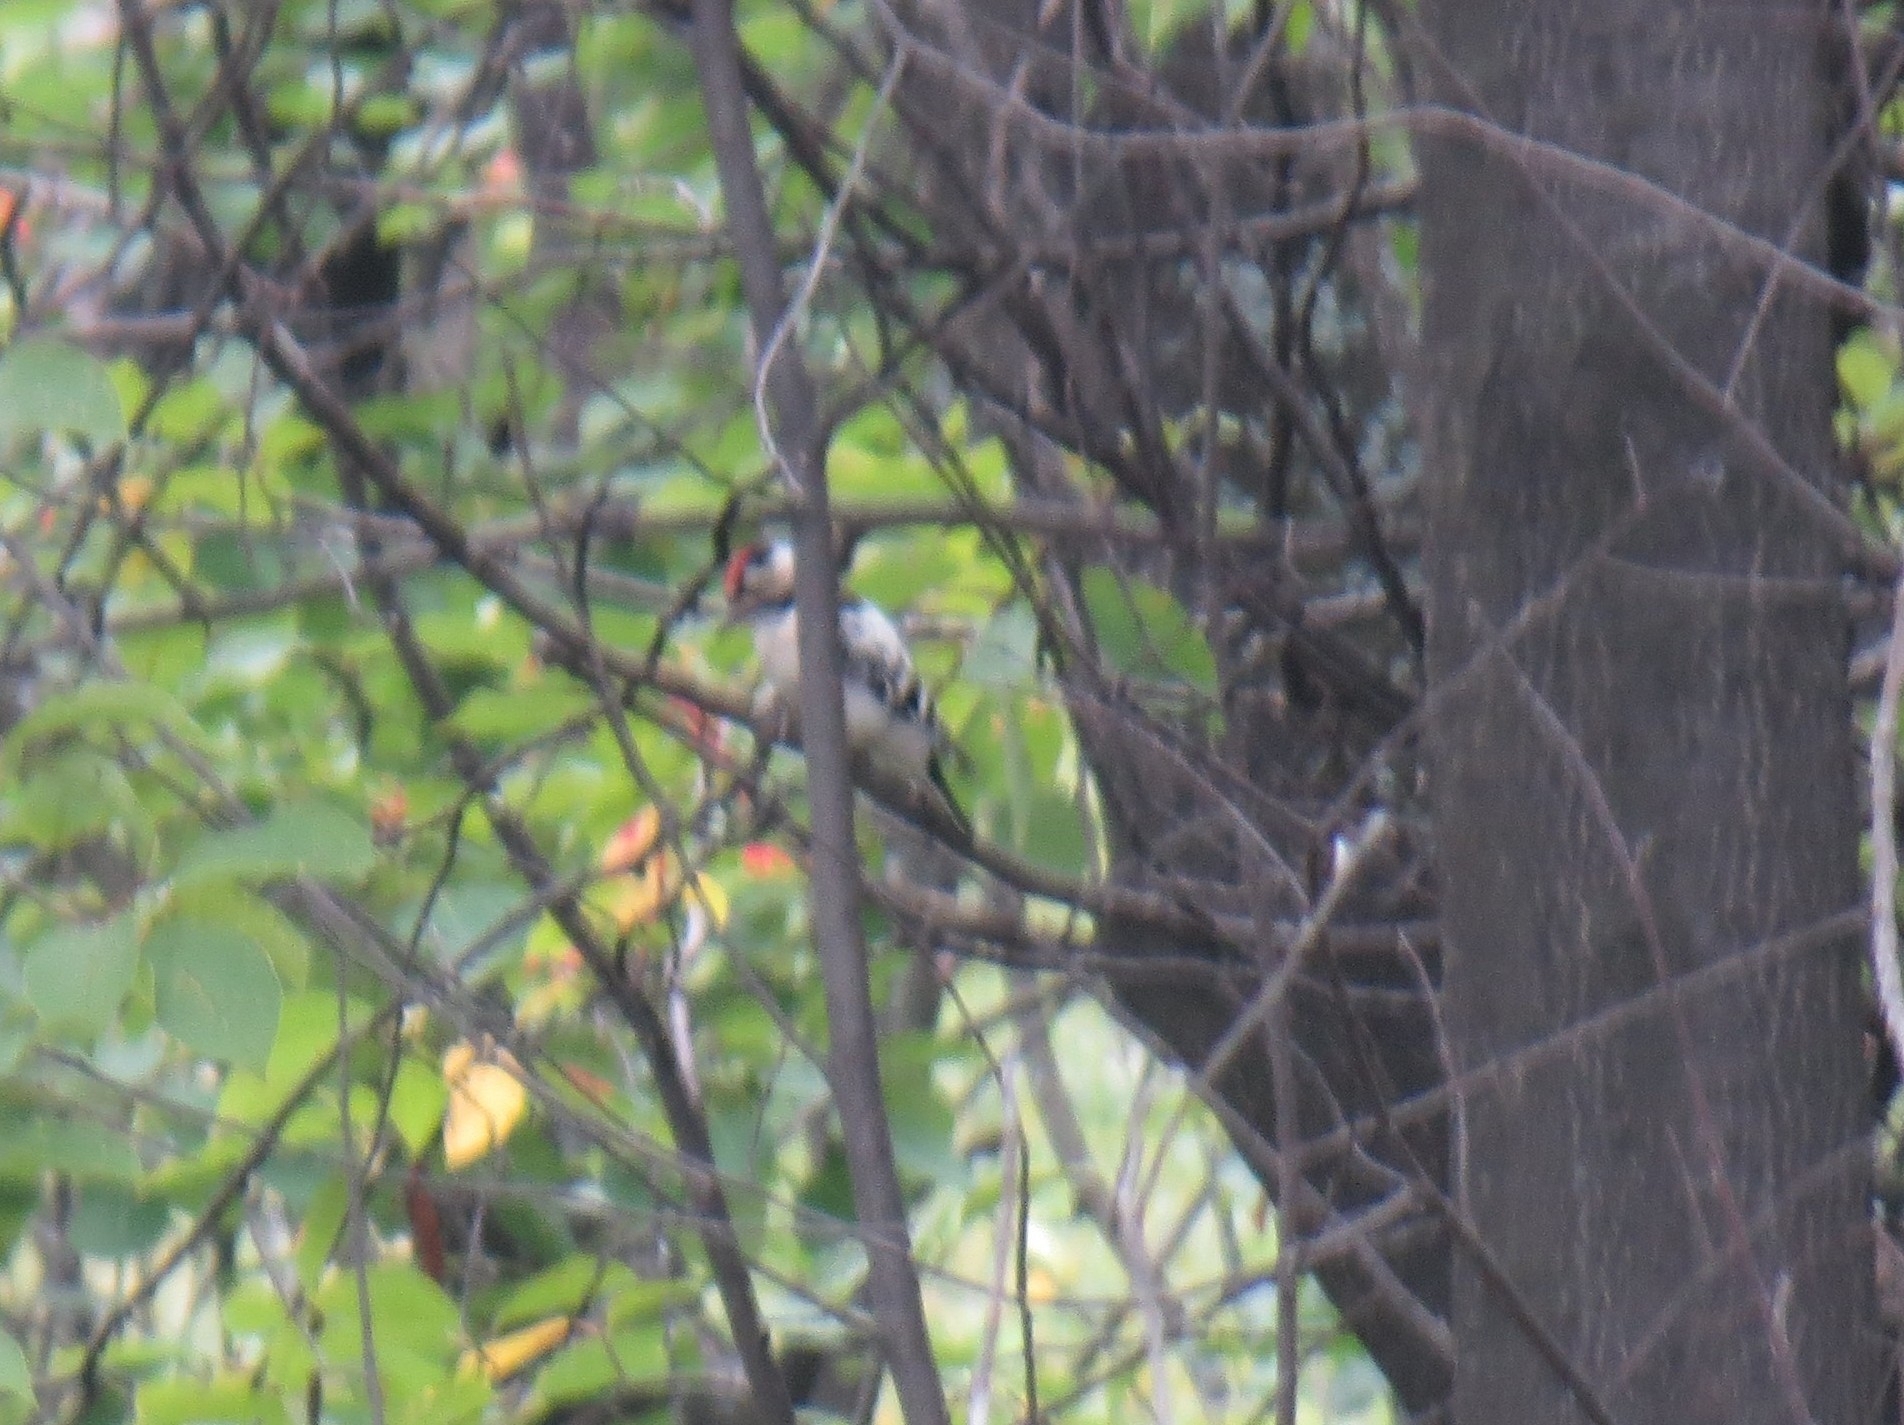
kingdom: Animalia
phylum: Chordata
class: Aves
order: Piciformes
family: Picidae
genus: Dryobates
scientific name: Dryobates minor
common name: Lesser spotted woodpecker
